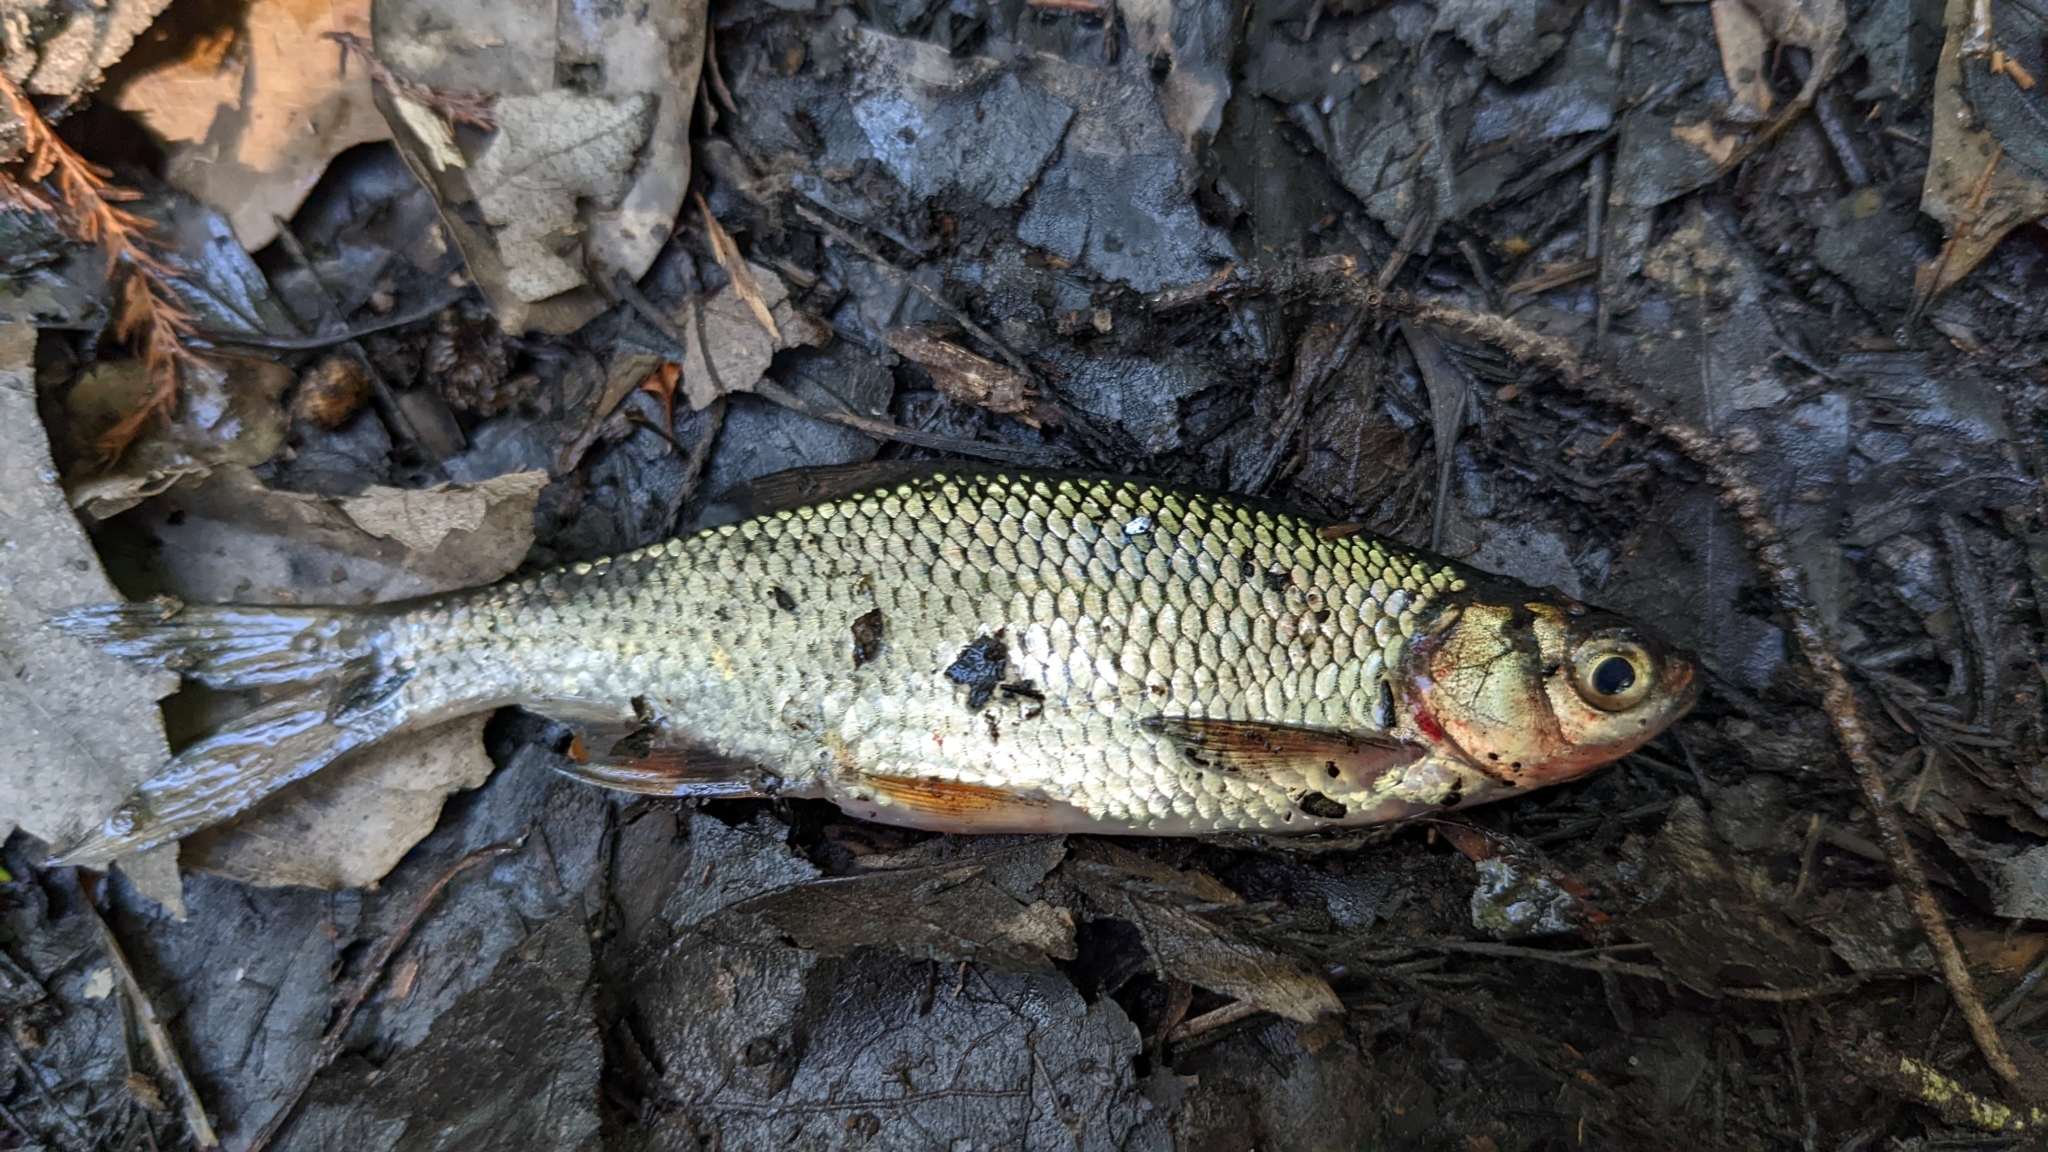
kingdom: Animalia
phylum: Chordata
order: Cypriniformes
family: Cyprinidae
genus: Notemigonus
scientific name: Notemigonus crysoleucas
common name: Golden shiner
